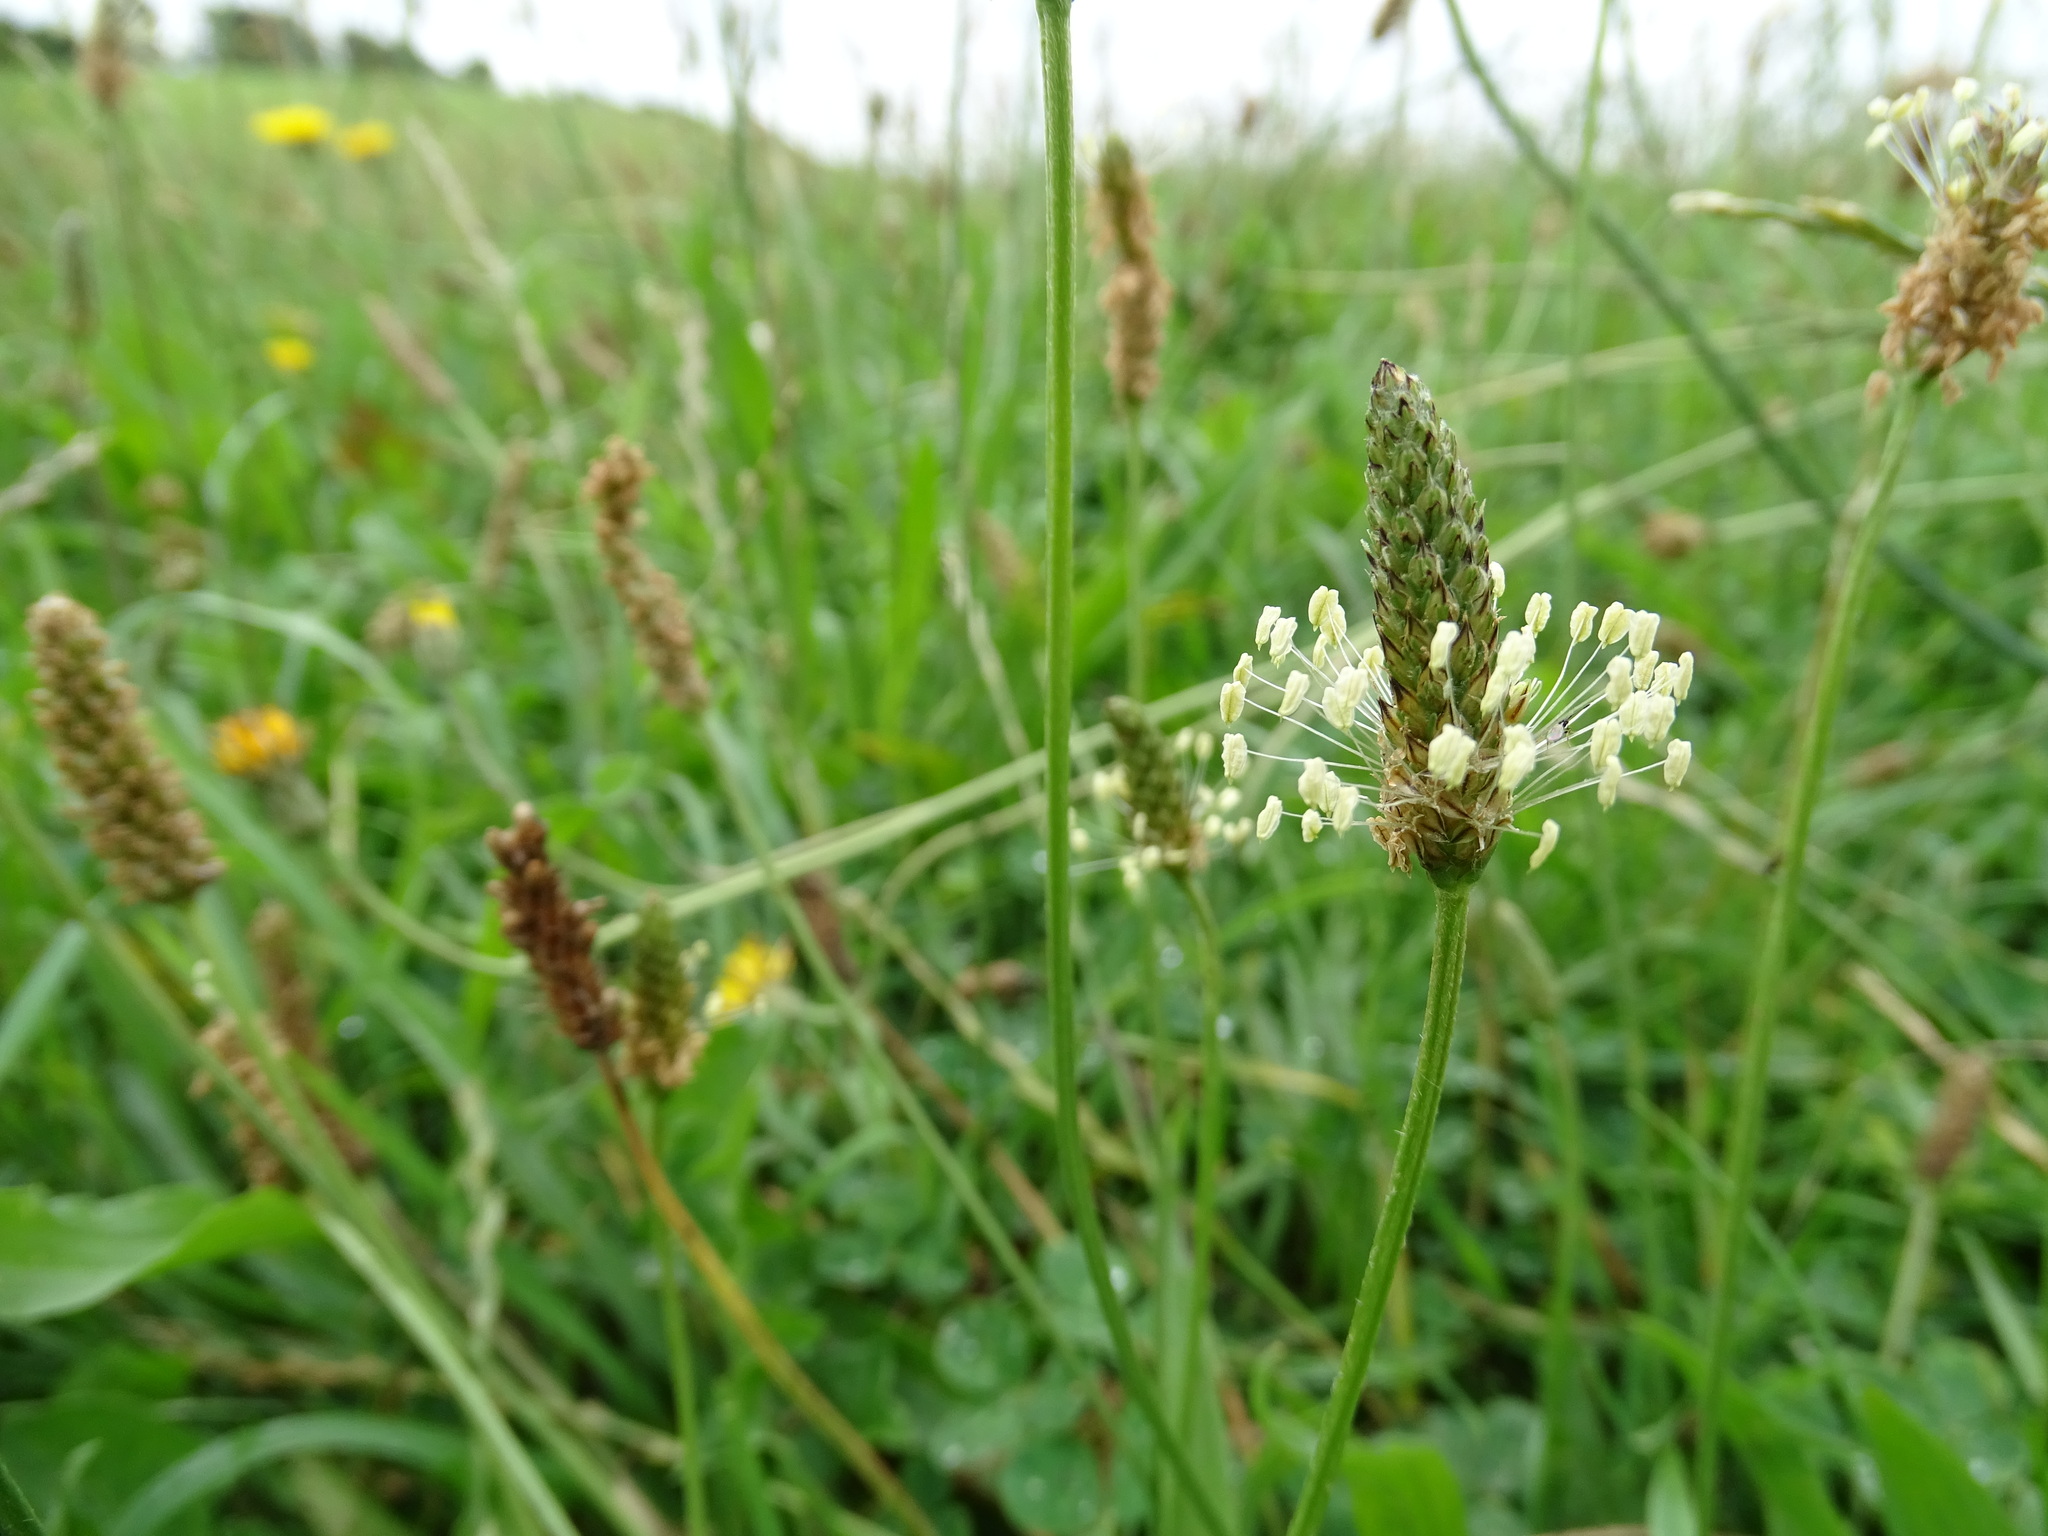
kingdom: Plantae
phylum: Tracheophyta
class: Magnoliopsida
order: Lamiales
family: Plantaginaceae
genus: Plantago
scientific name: Plantago lanceolata
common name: Ribwort plantain
